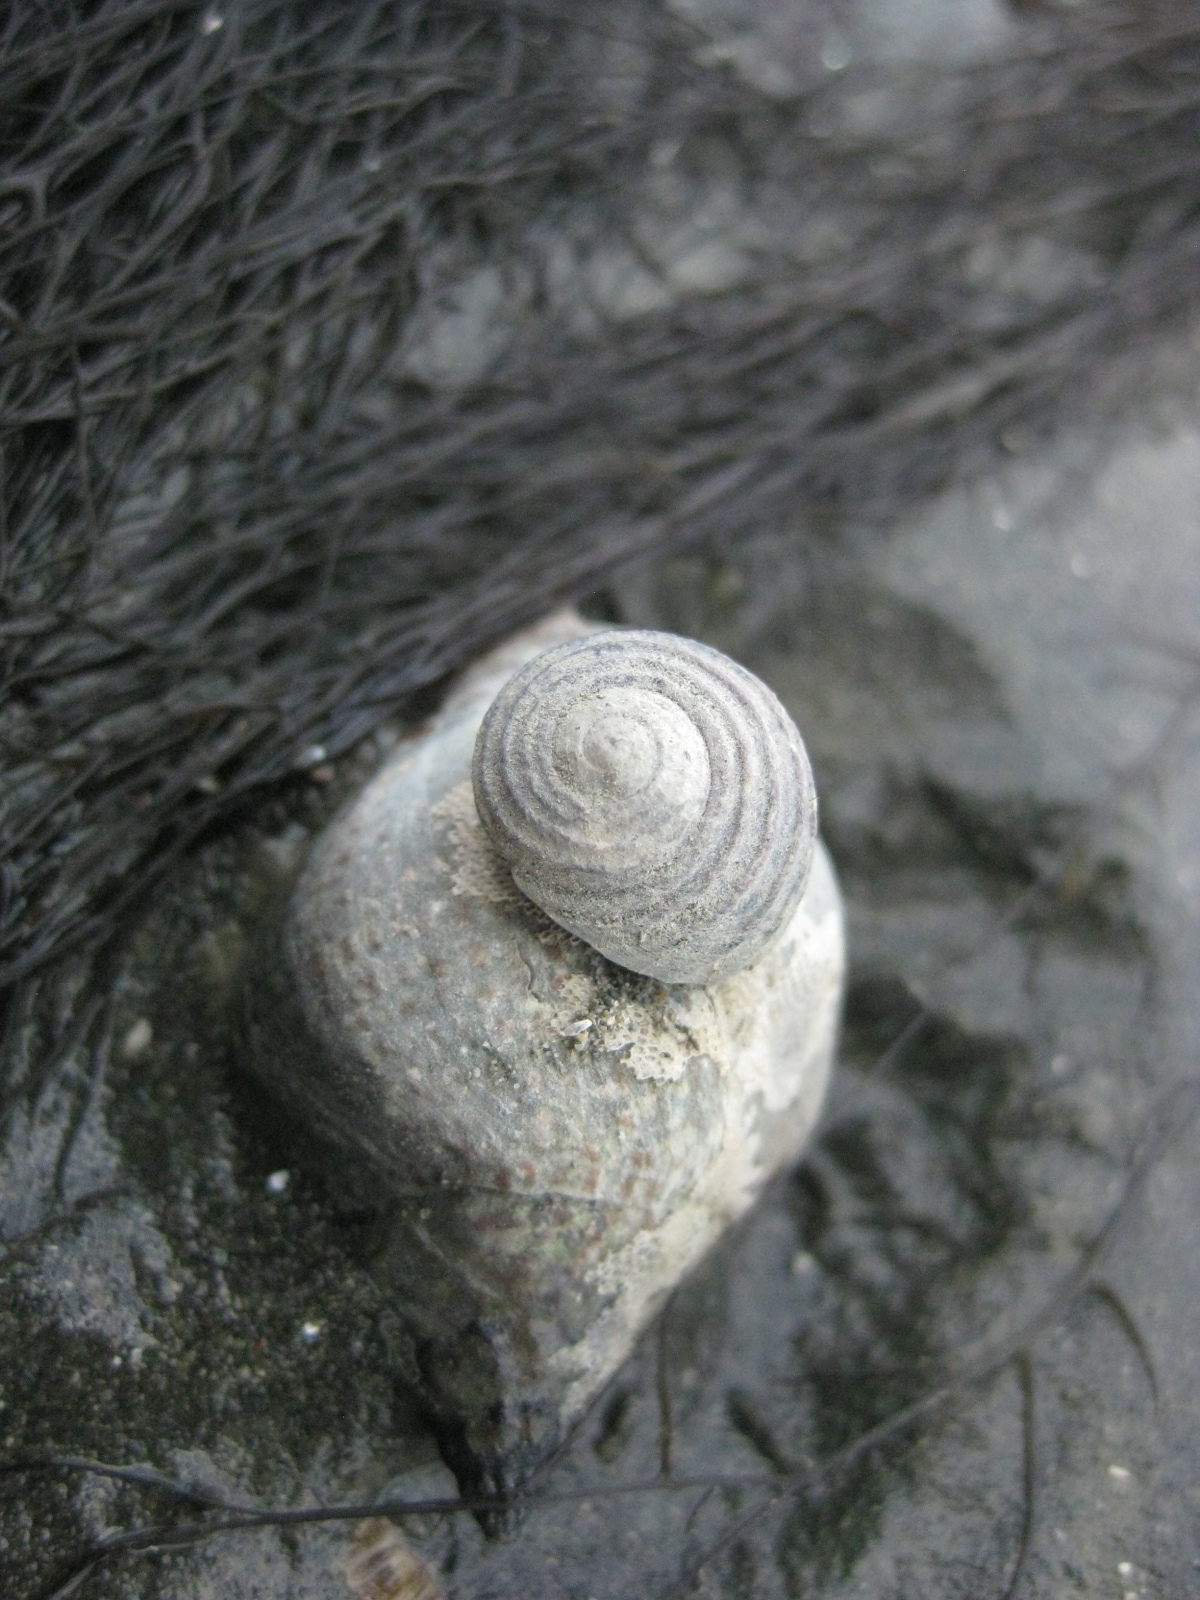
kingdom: Animalia
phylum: Mollusca
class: Gastropoda
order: Trochida
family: Trochidae
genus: Diloma
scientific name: Diloma subrostratum
